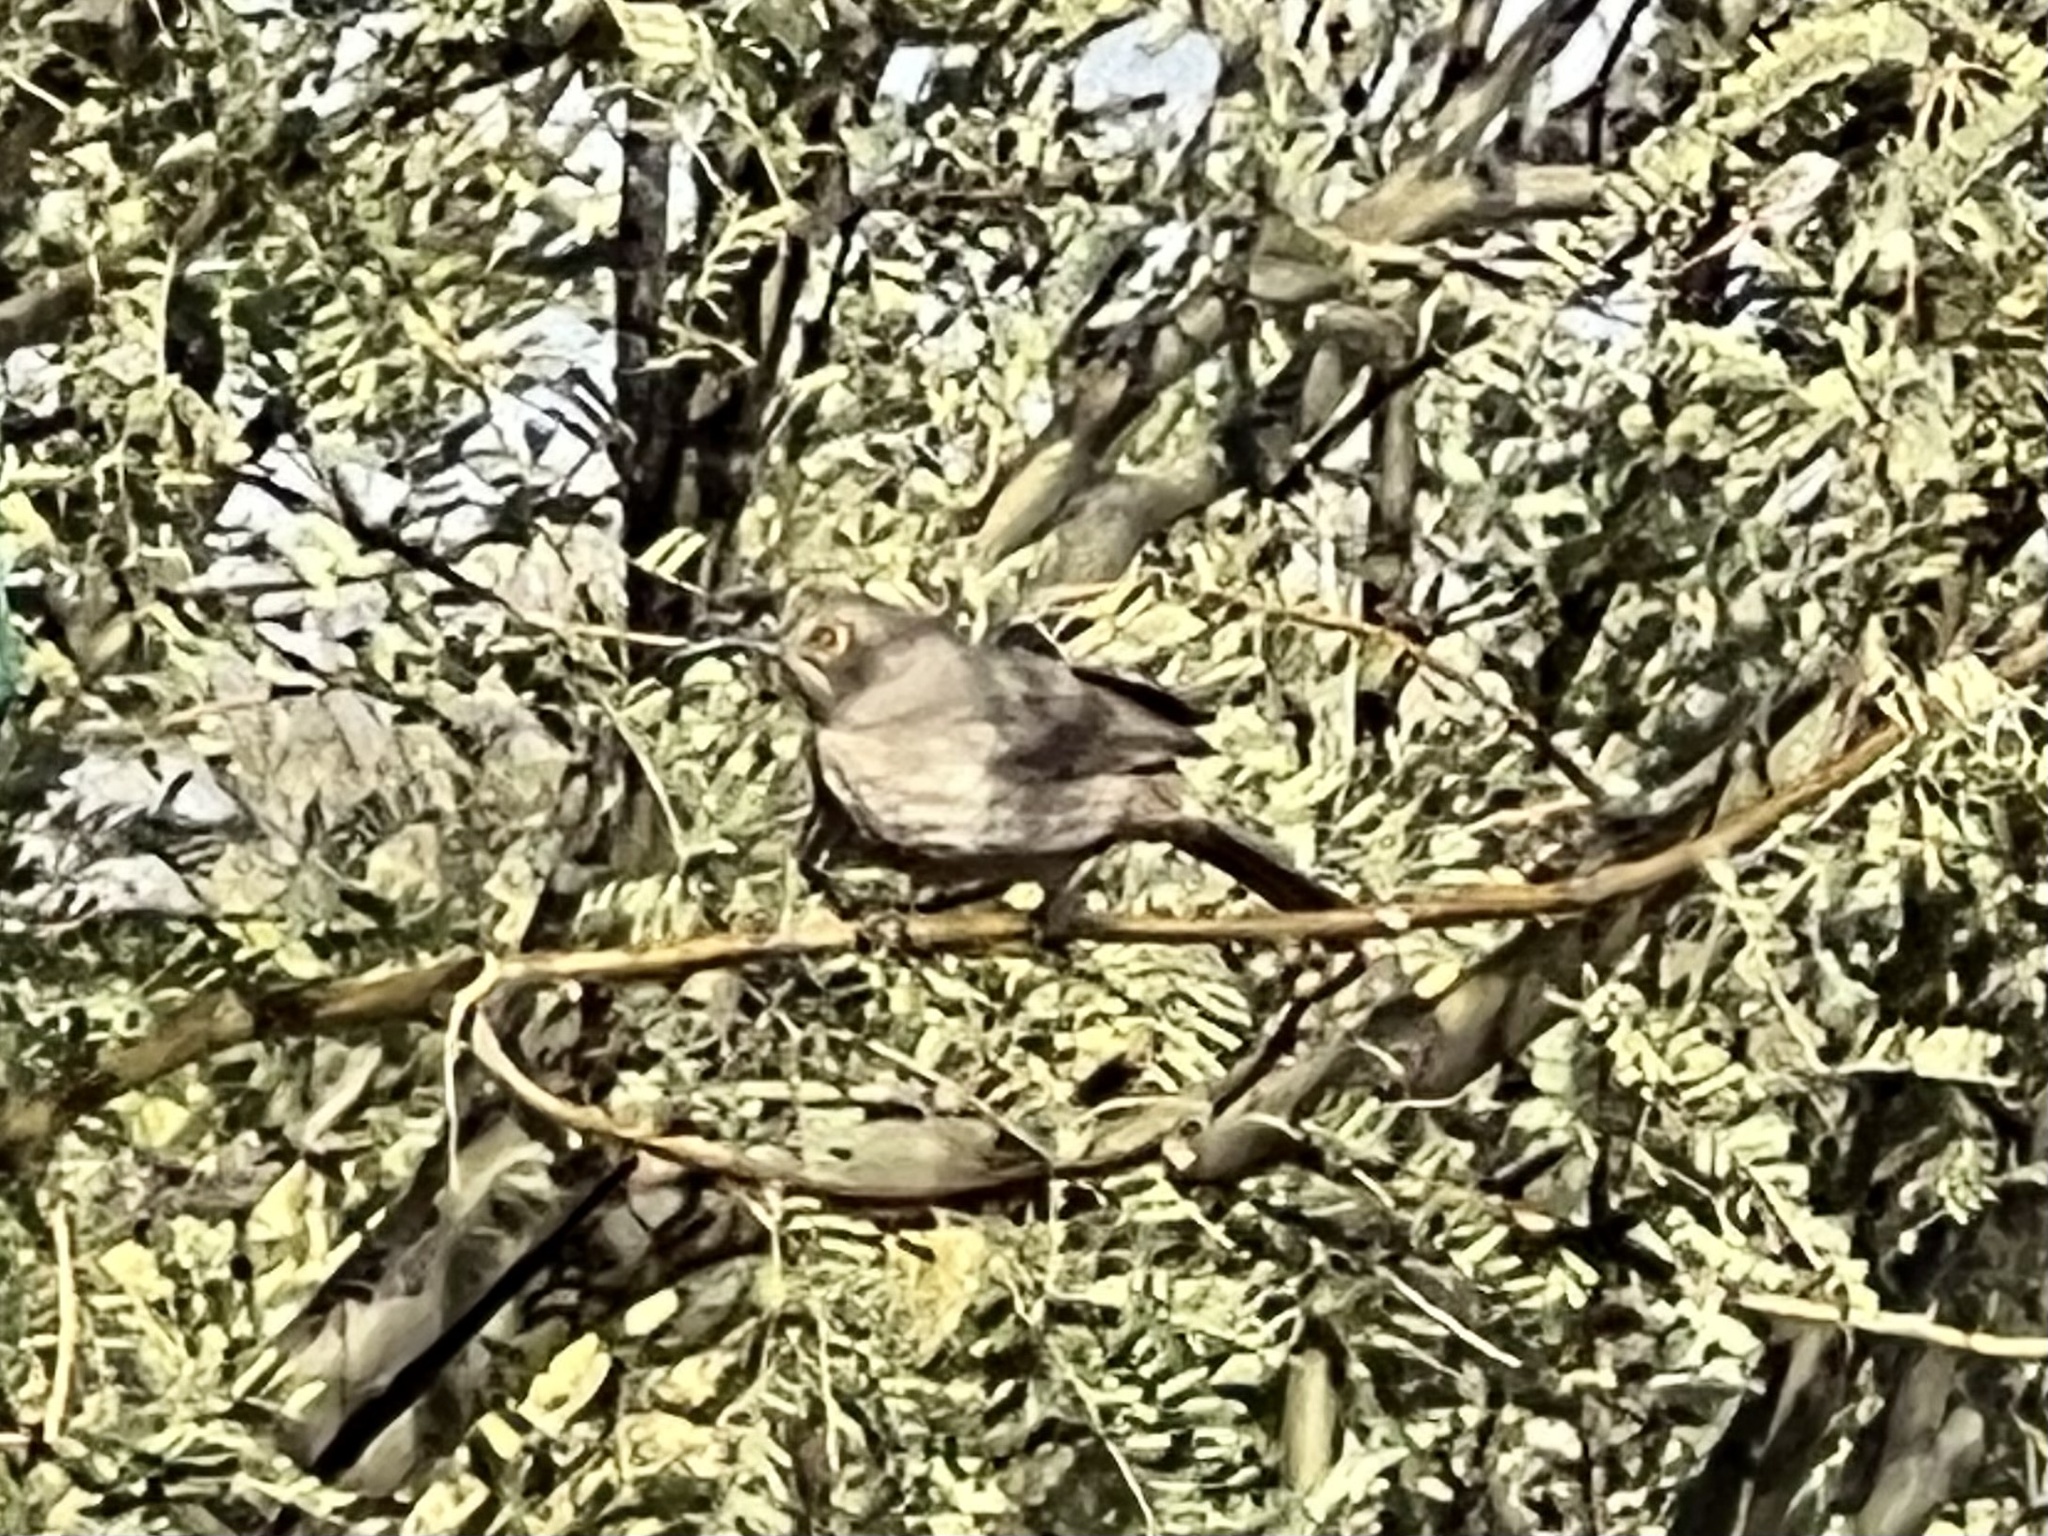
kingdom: Animalia
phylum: Chordata
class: Aves
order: Passeriformes
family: Mimidae
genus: Toxostoma
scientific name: Toxostoma curvirostre
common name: Curve-billed thrasher
